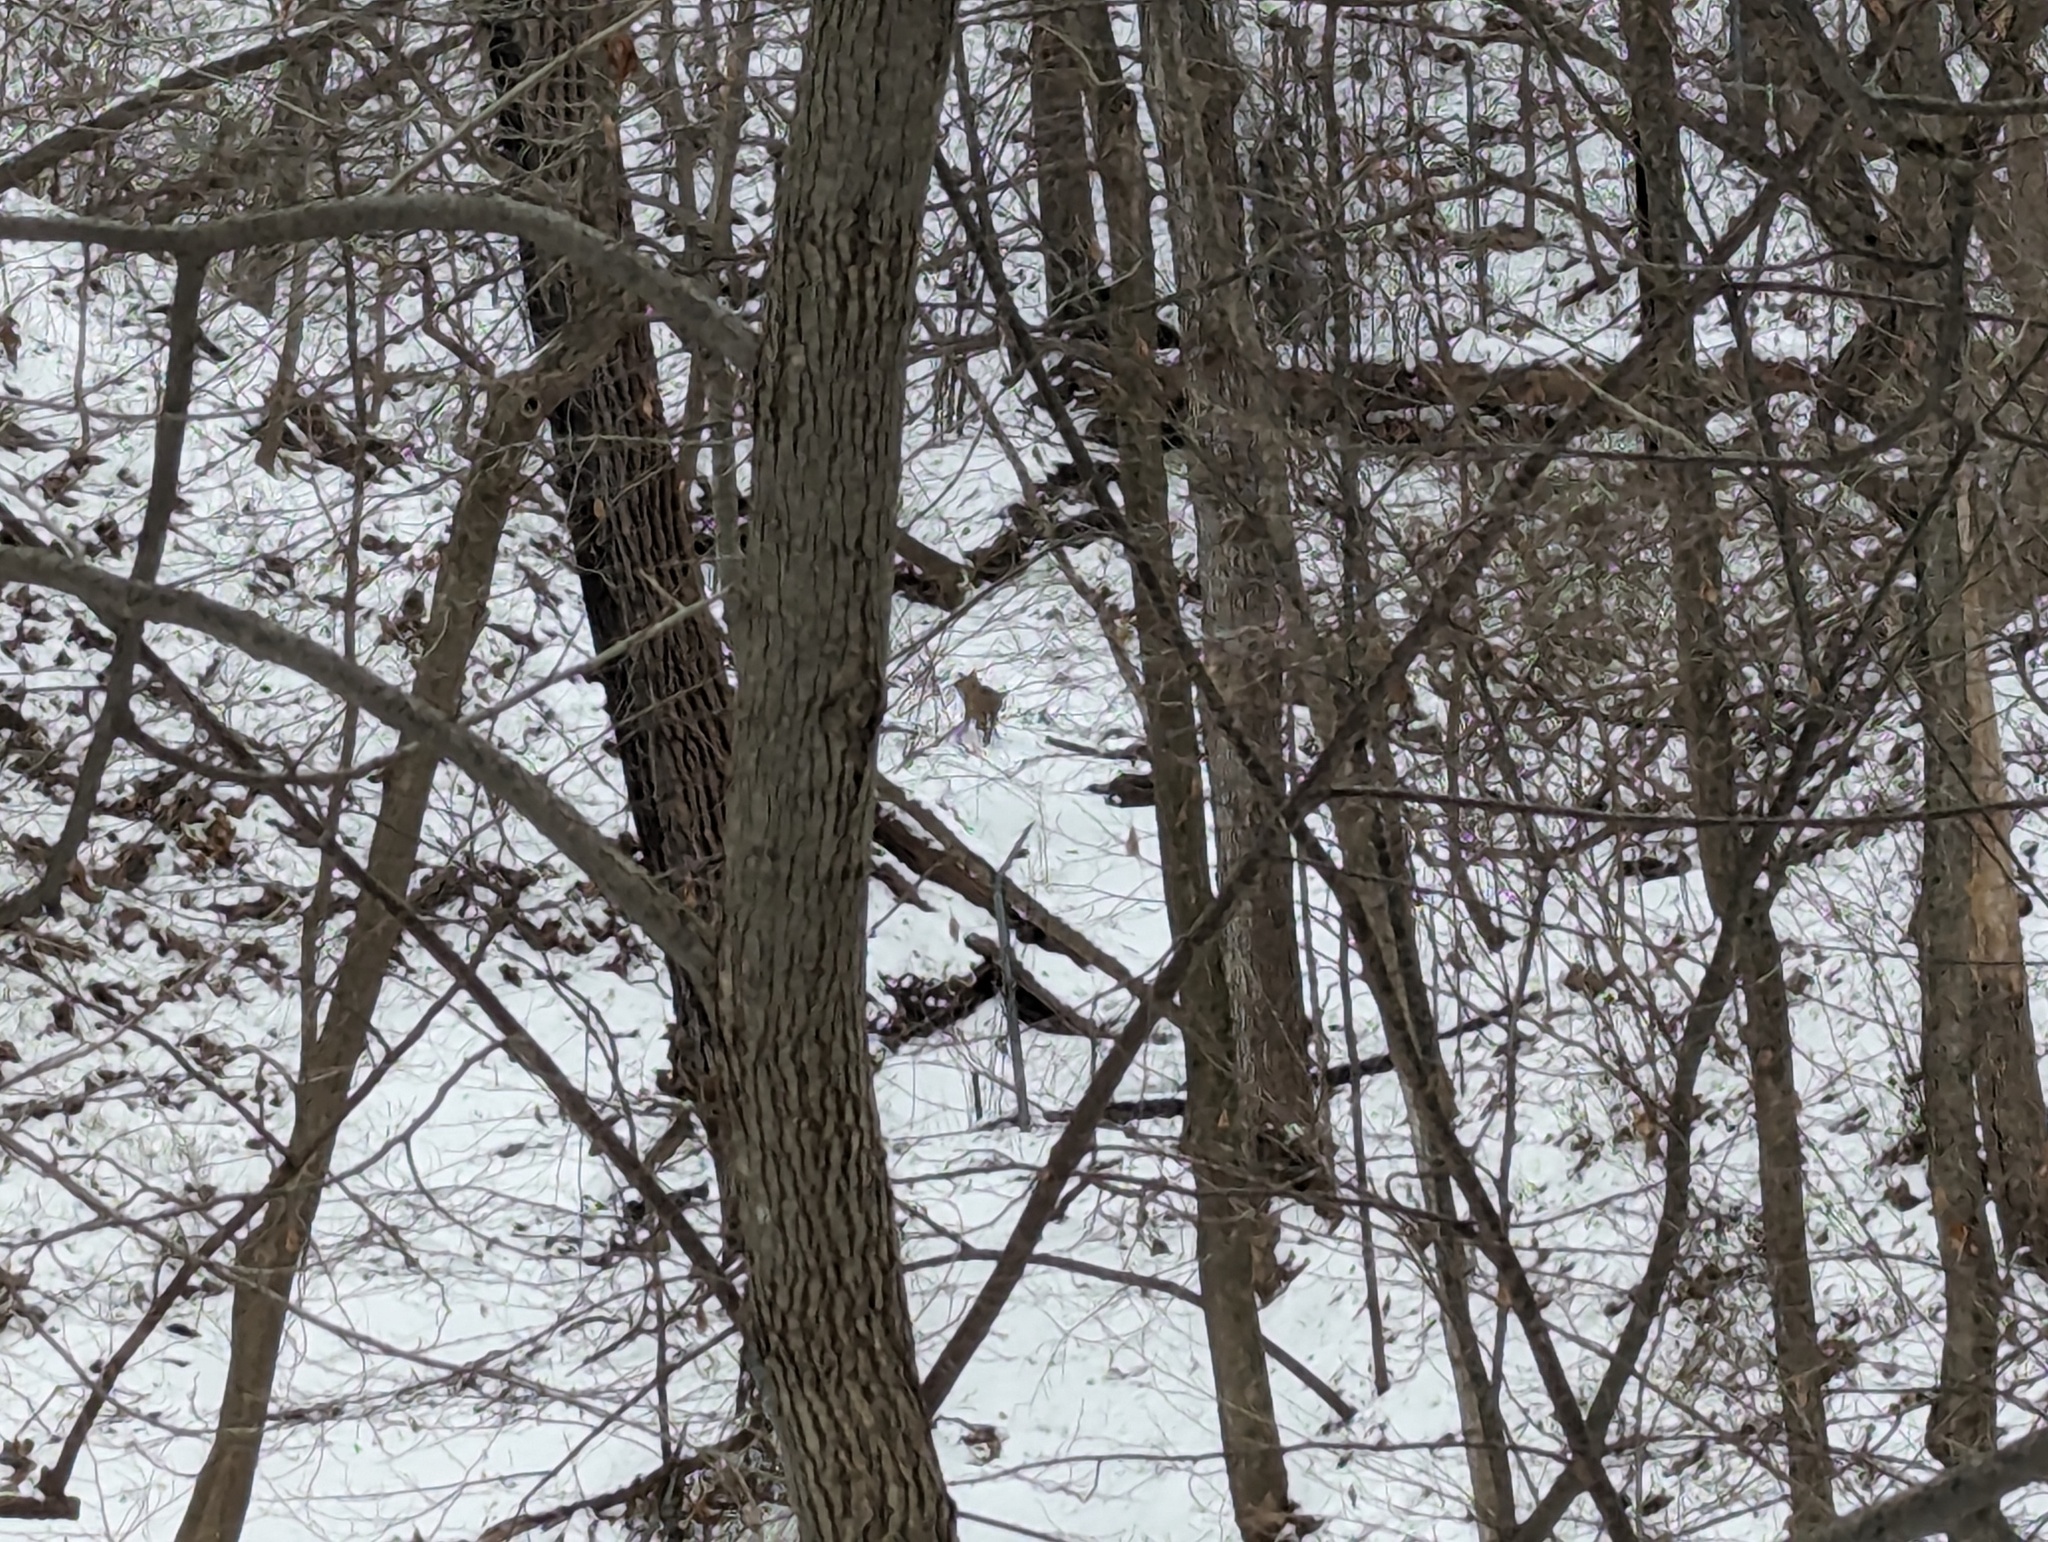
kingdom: Animalia
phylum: Chordata
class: Mammalia
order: Carnivora
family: Canidae
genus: Canis
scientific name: Canis latrans
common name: Coyote
